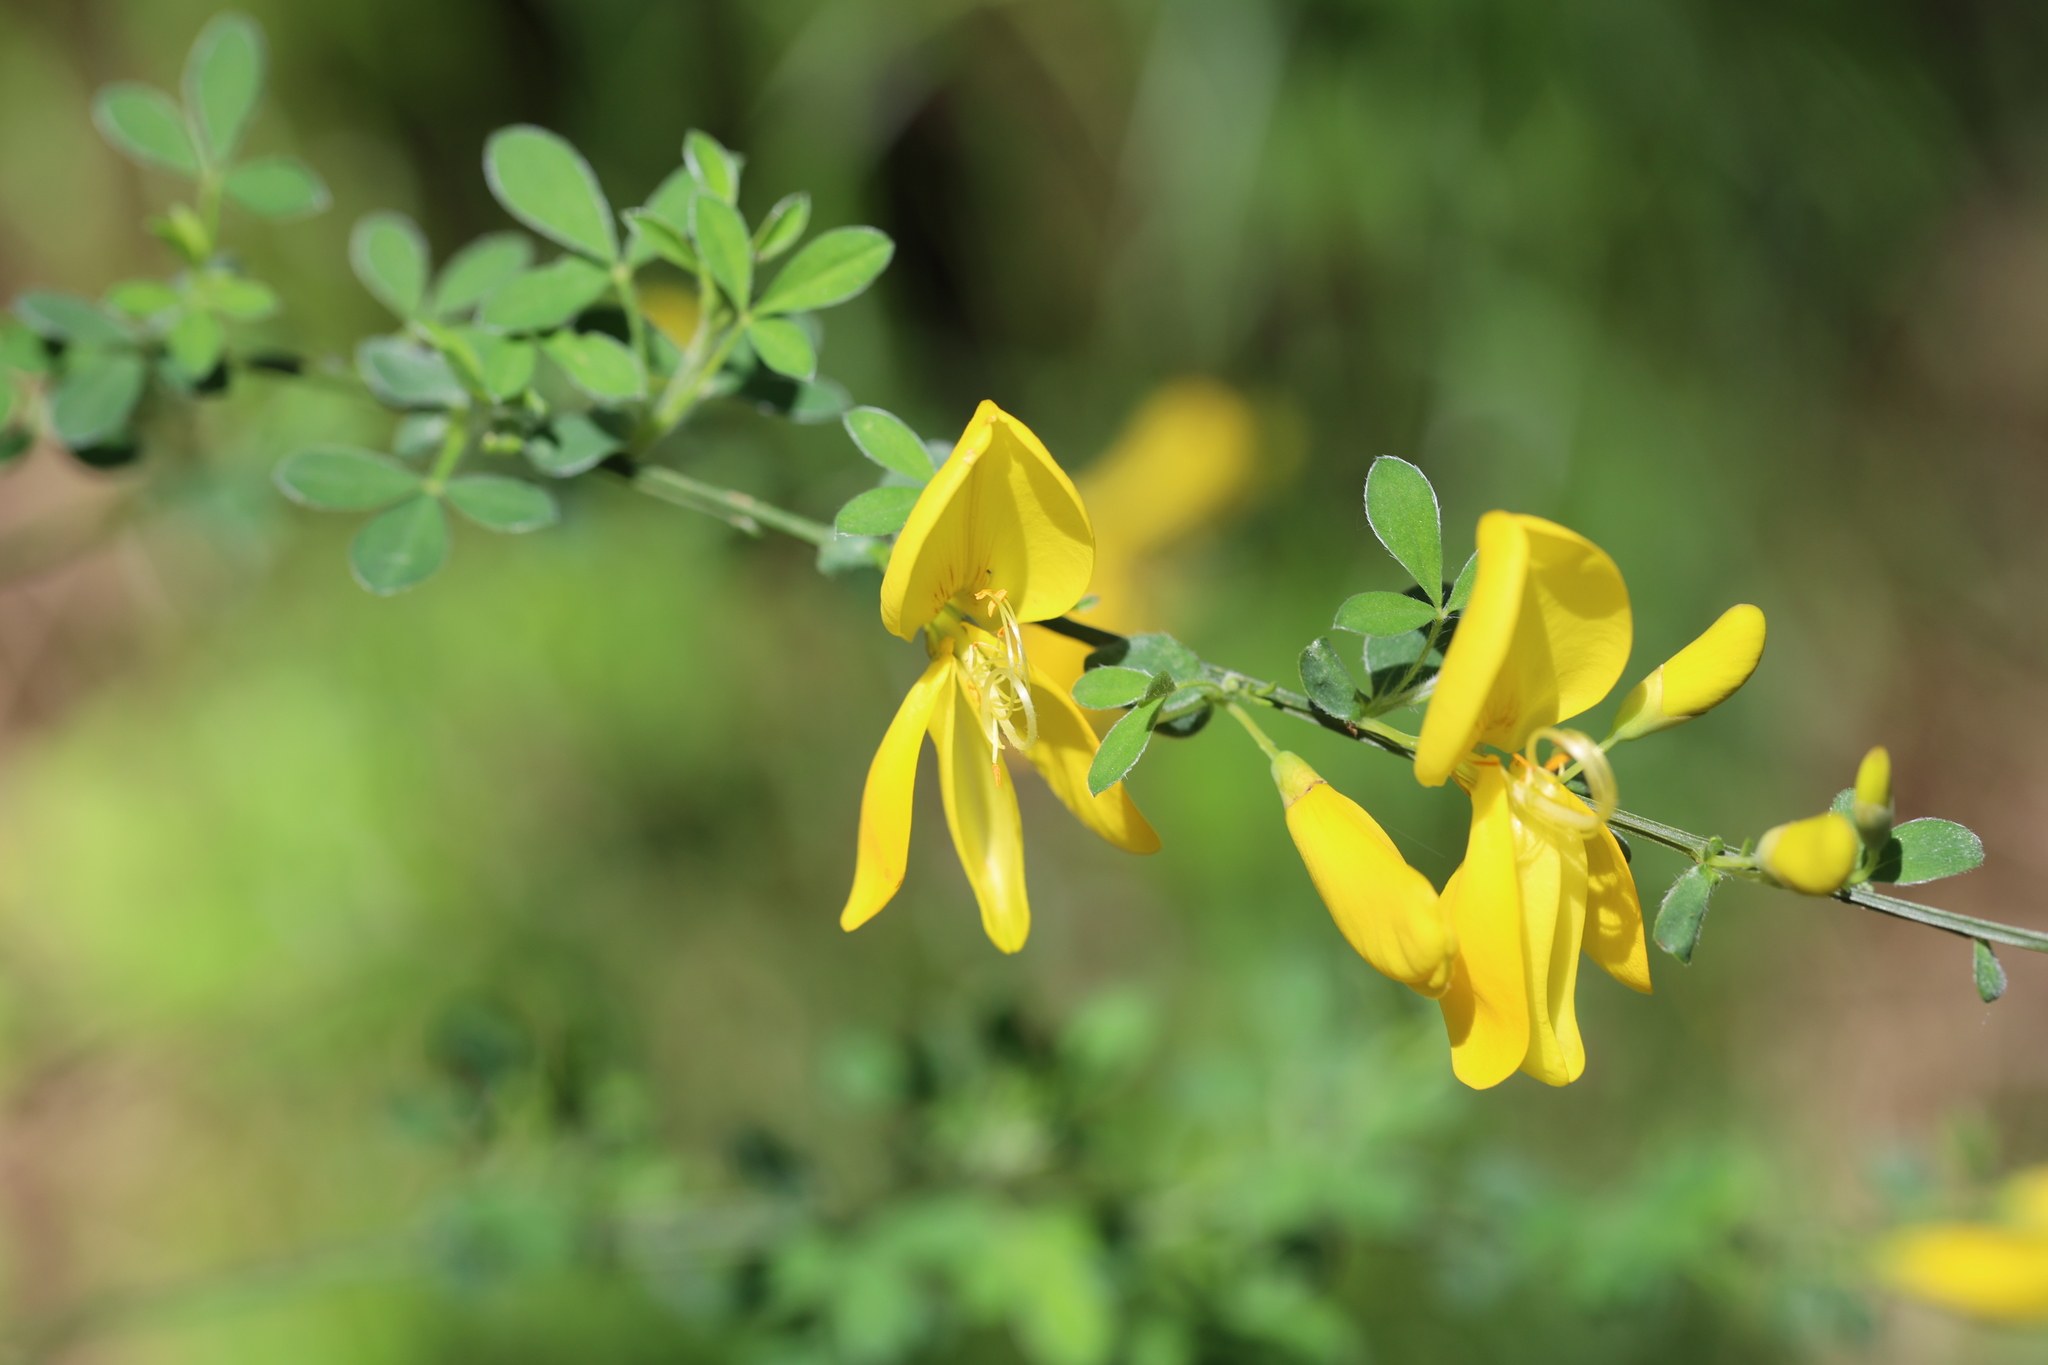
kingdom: Plantae
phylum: Tracheophyta
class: Magnoliopsida
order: Fabales
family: Fabaceae
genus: Cytisus
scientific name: Cytisus scoparius
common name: Scotch broom
